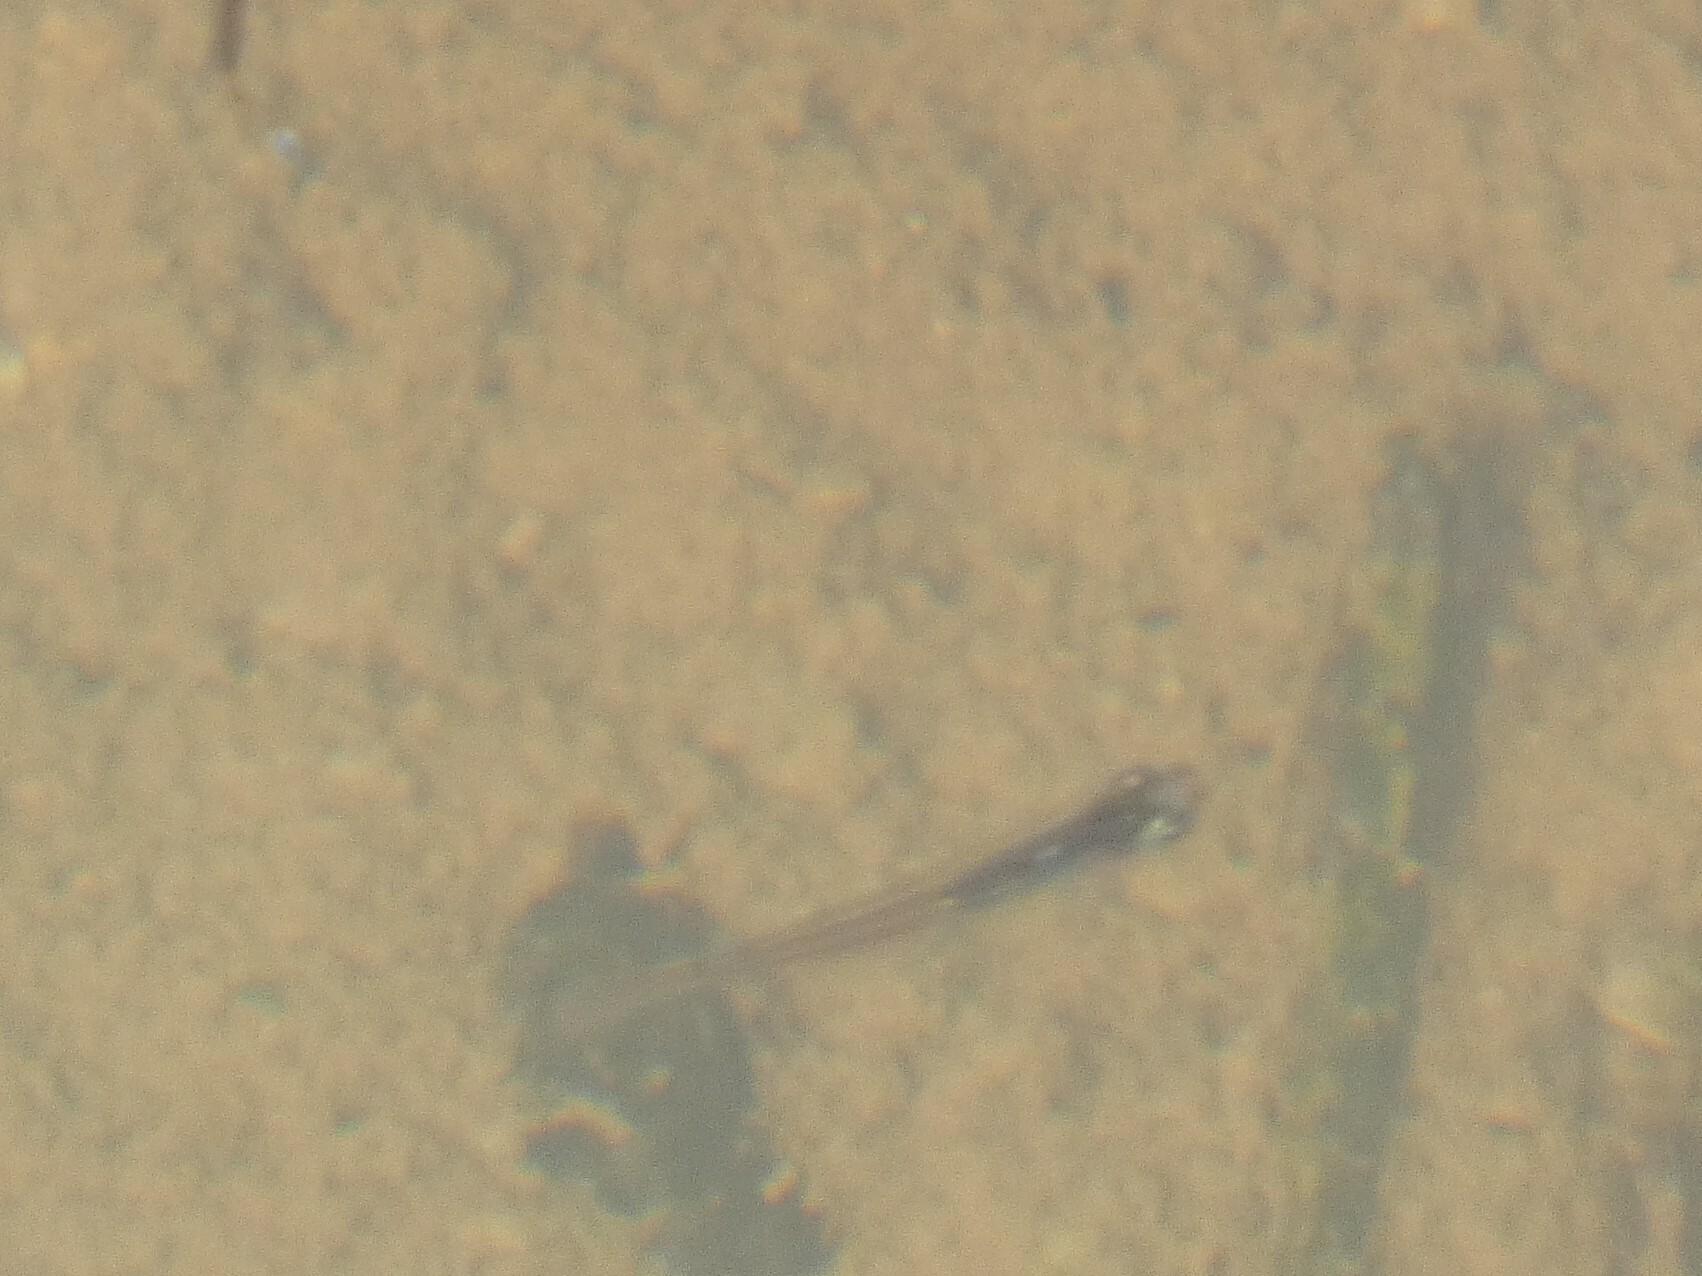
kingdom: Animalia
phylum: Chordata
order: Cyprinodontiformes
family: Poeciliidae
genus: Gambusia
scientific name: Gambusia affinis
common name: Mosquitofish
